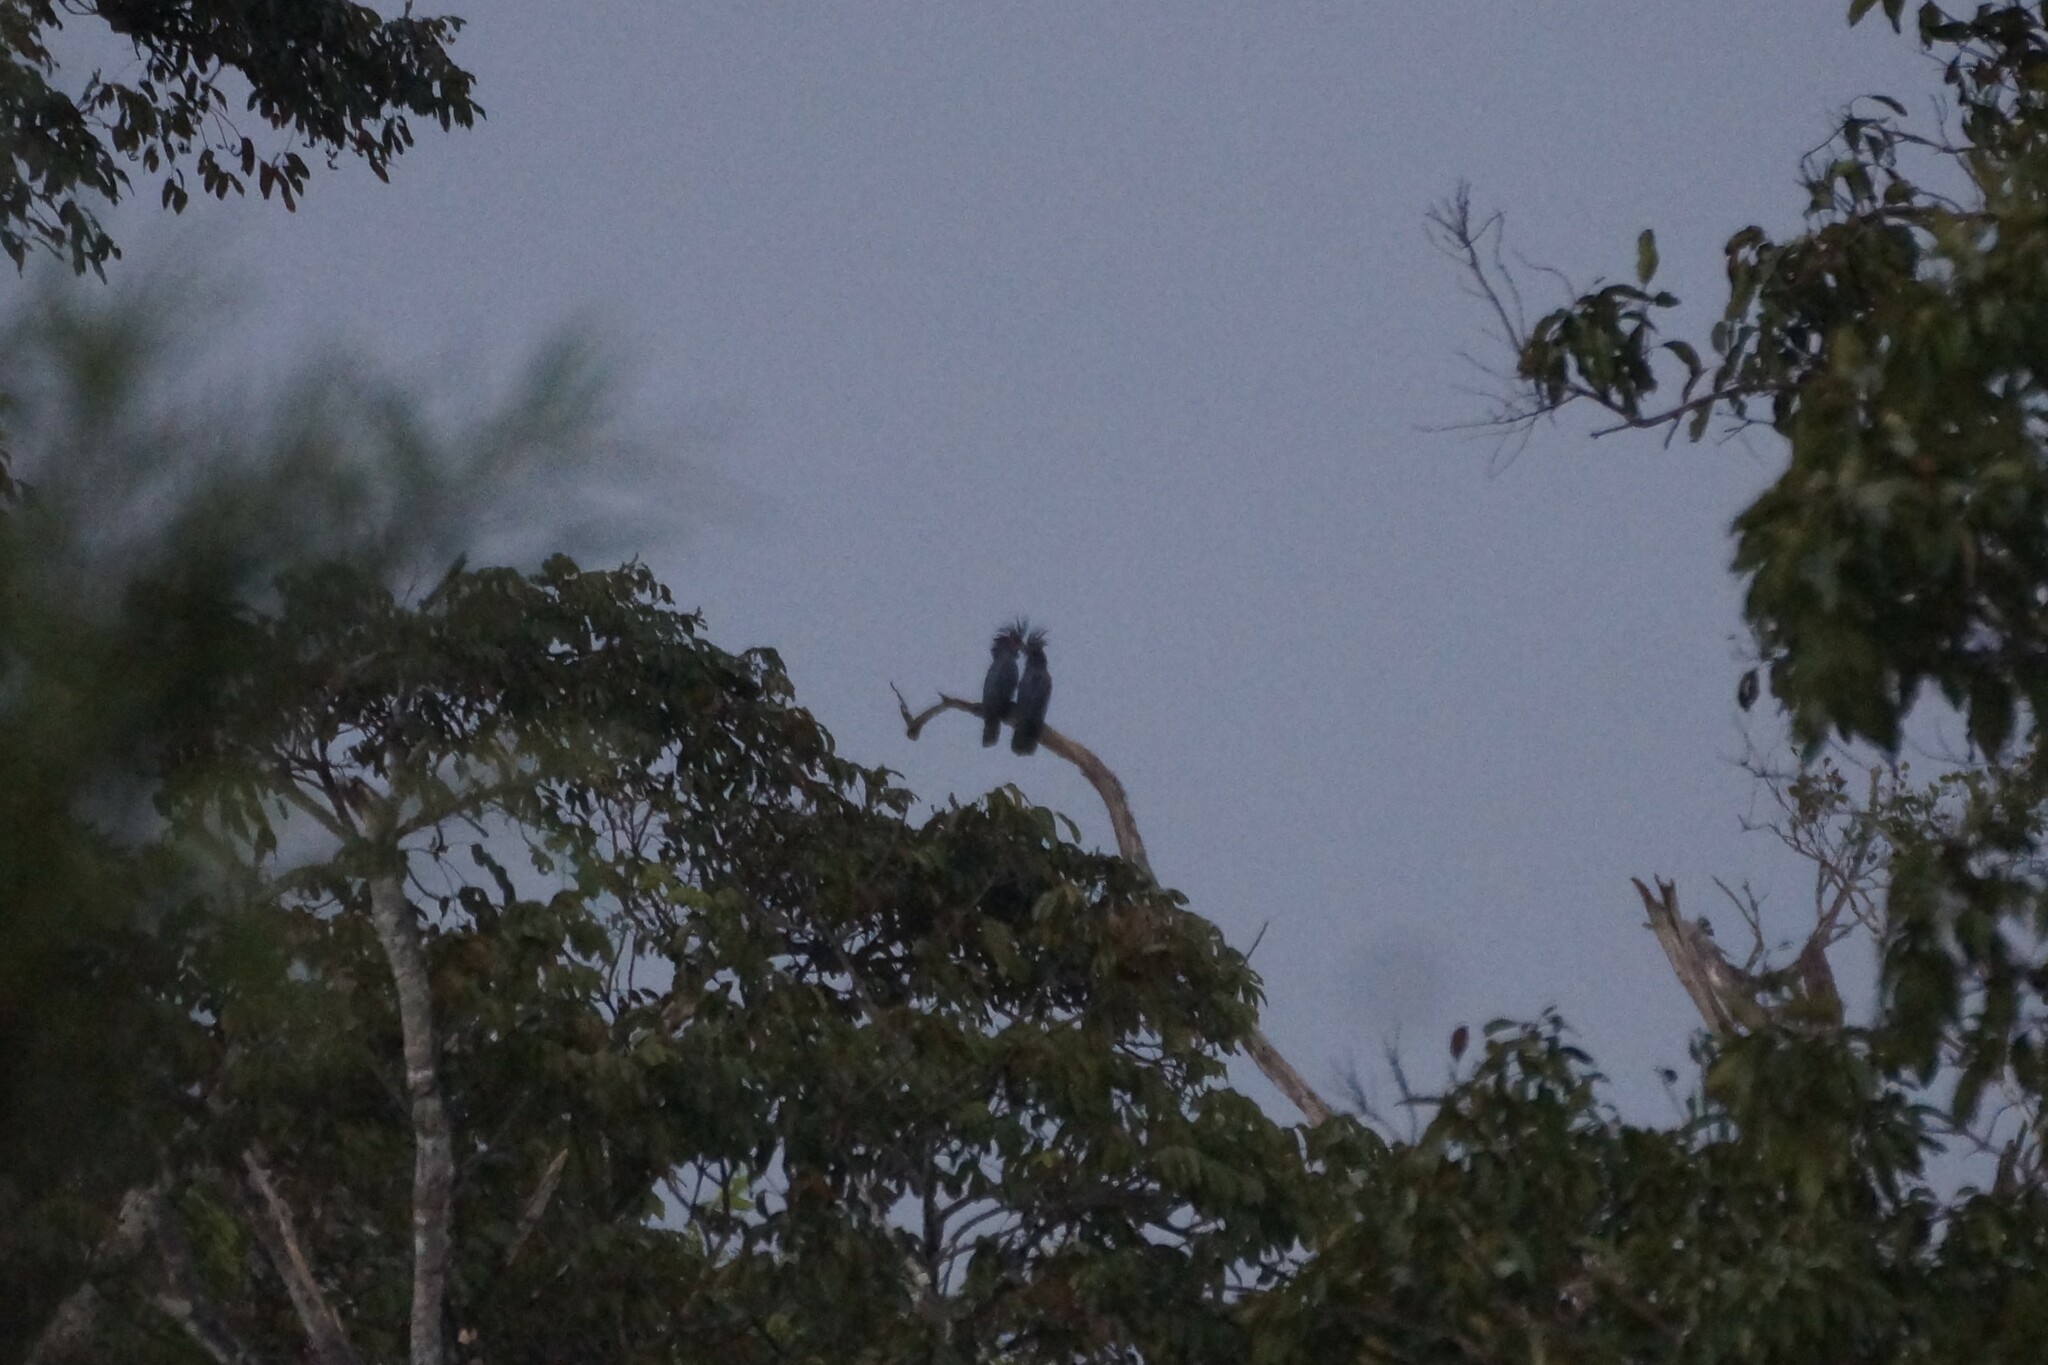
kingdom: Animalia
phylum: Chordata
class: Aves
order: Psittaciformes
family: Psittacidae
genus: Probosciger
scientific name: Probosciger aterrimus
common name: Palm cockatoo
